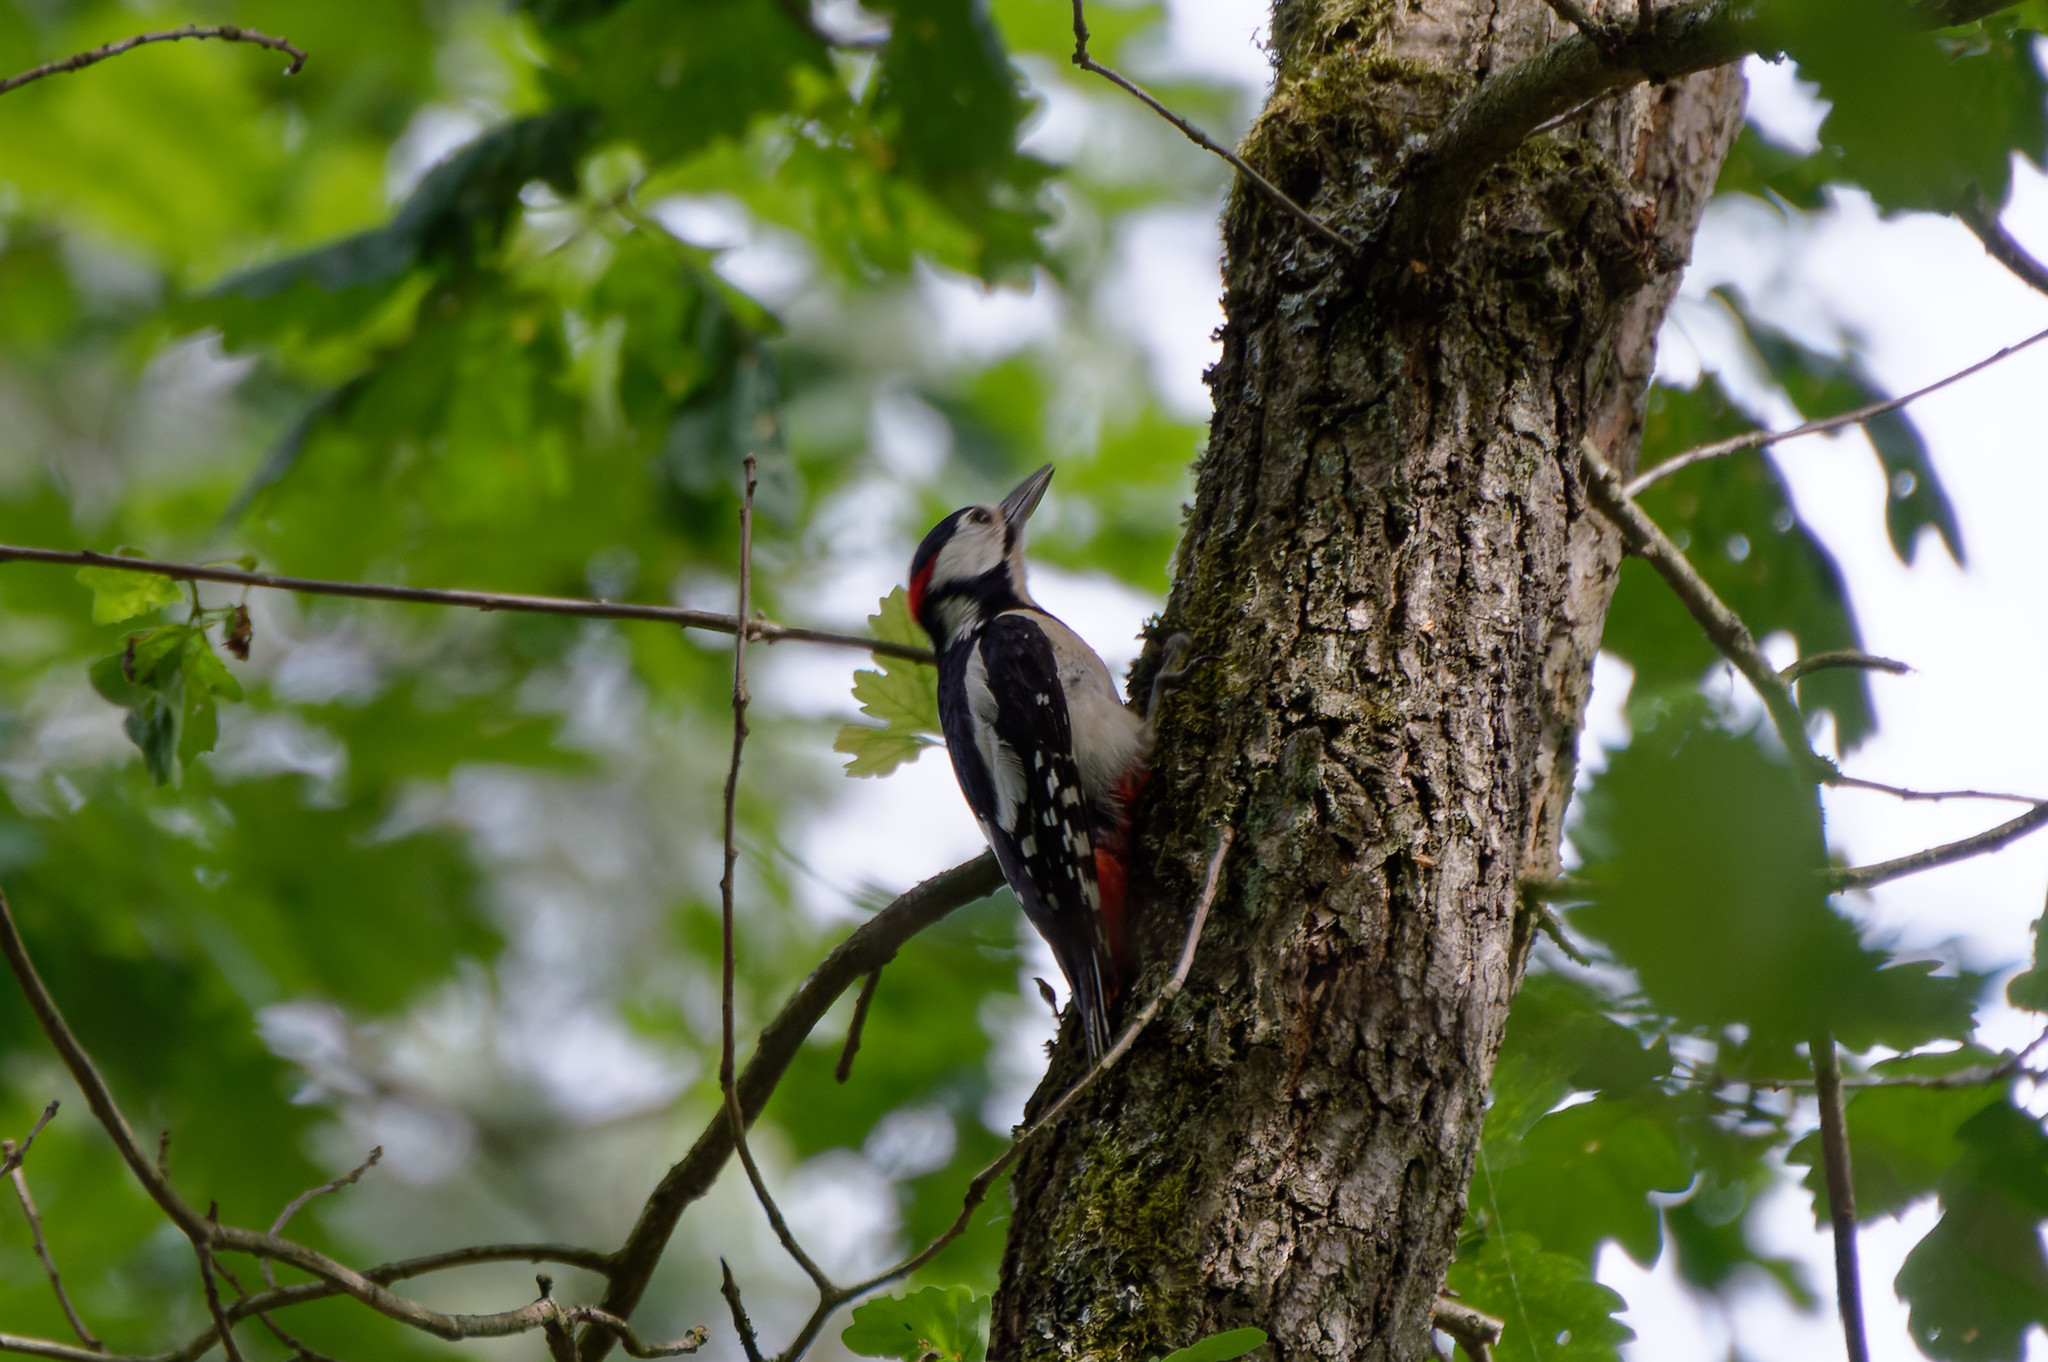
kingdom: Animalia
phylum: Chordata
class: Aves
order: Piciformes
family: Picidae
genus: Dendrocopos
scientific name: Dendrocopos major
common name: Great spotted woodpecker
